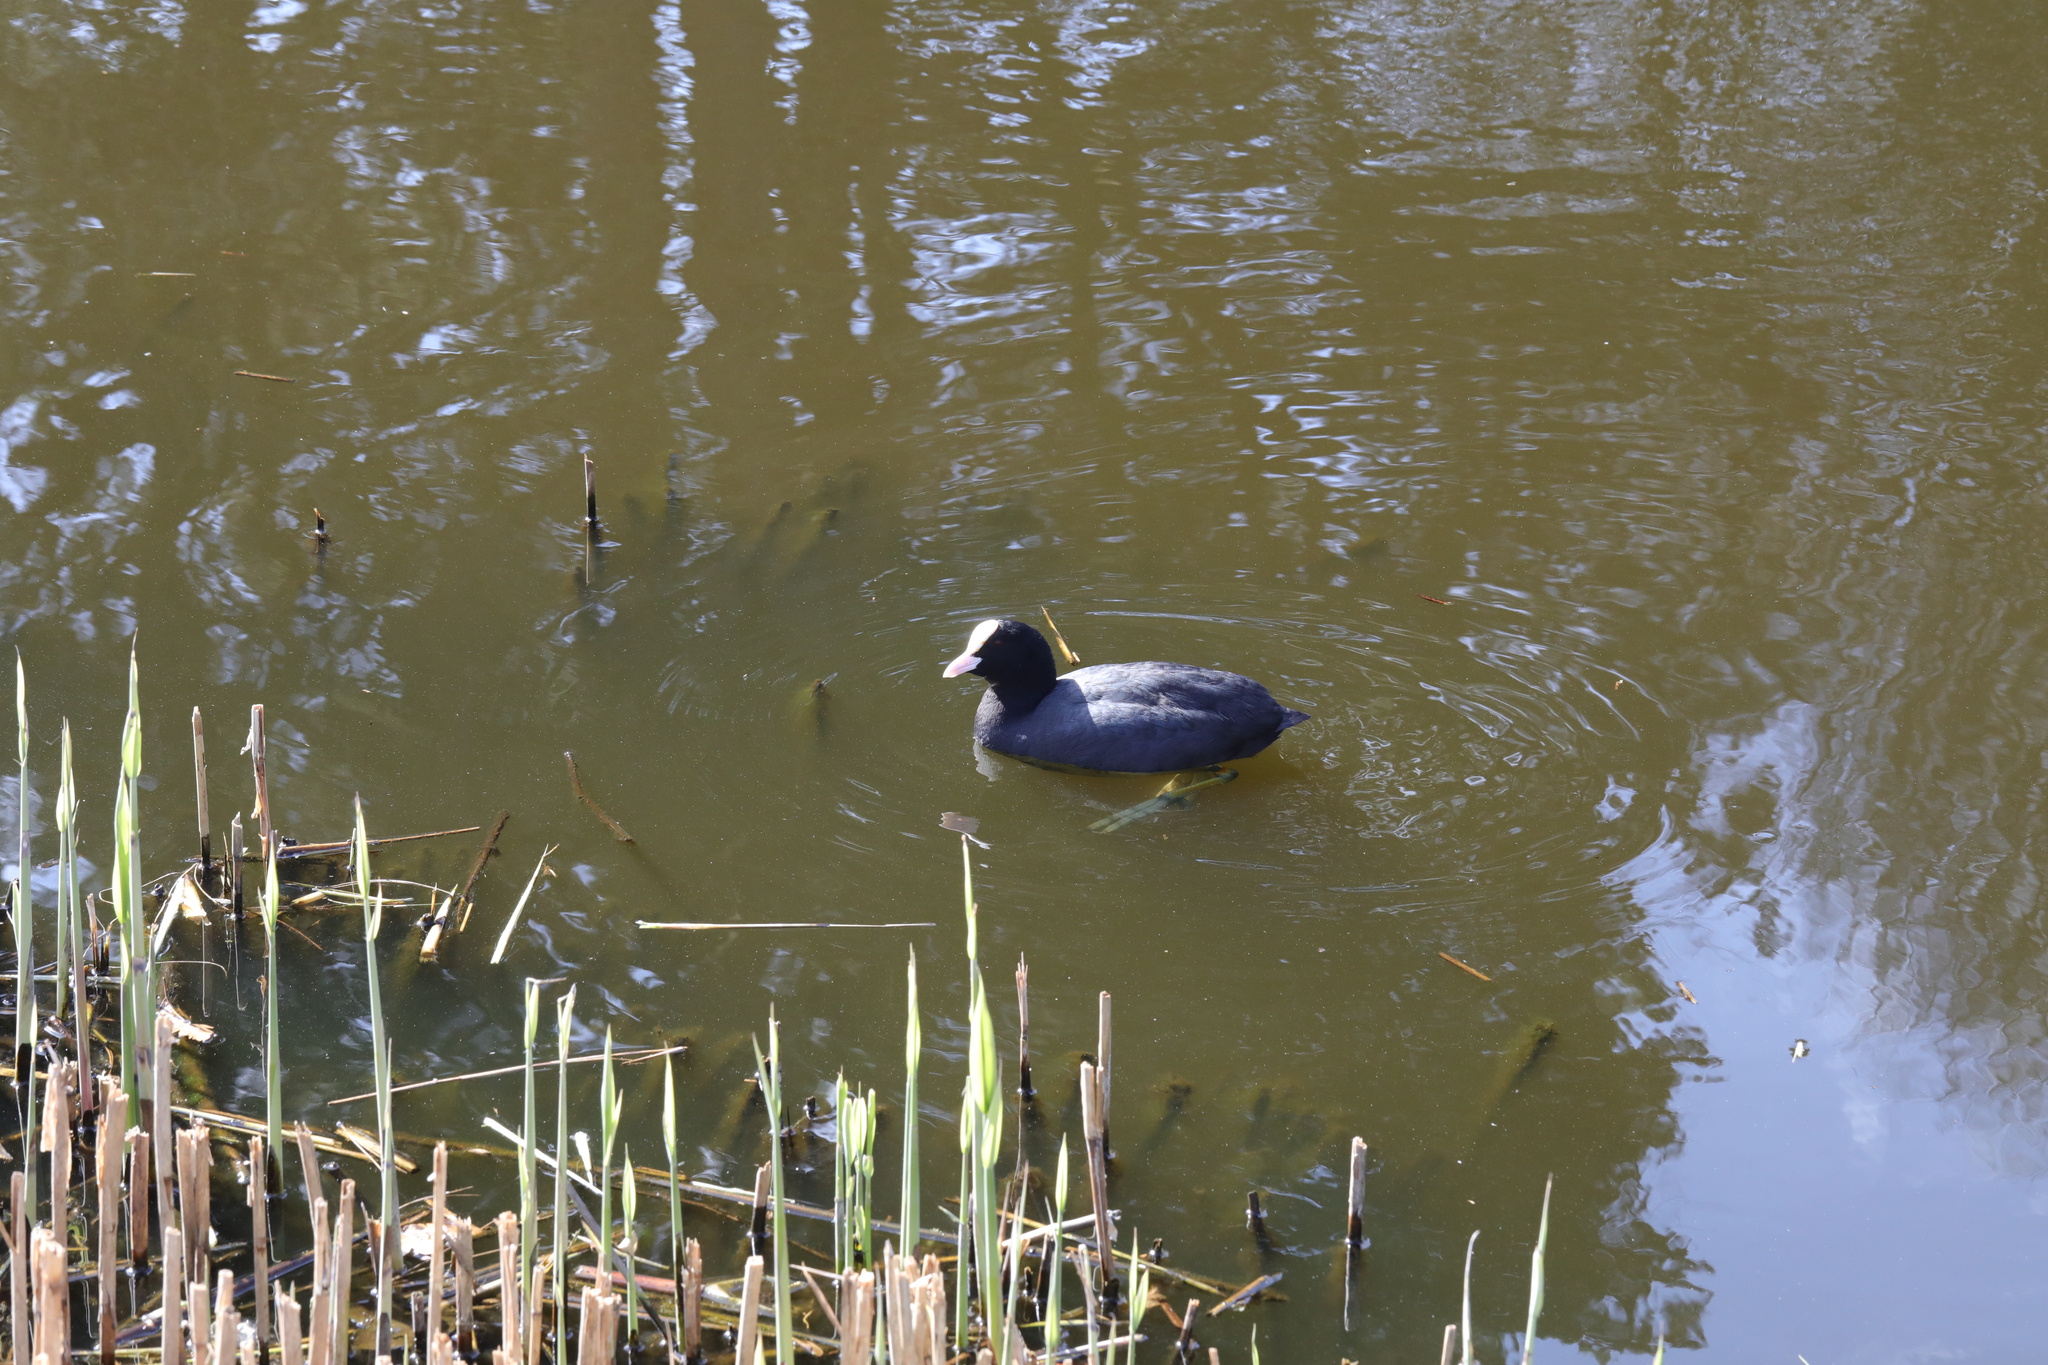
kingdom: Animalia
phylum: Chordata
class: Aves
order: Gruiformes
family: Rallidae
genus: Fulica
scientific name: Fulica atra
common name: Eurasian coot
